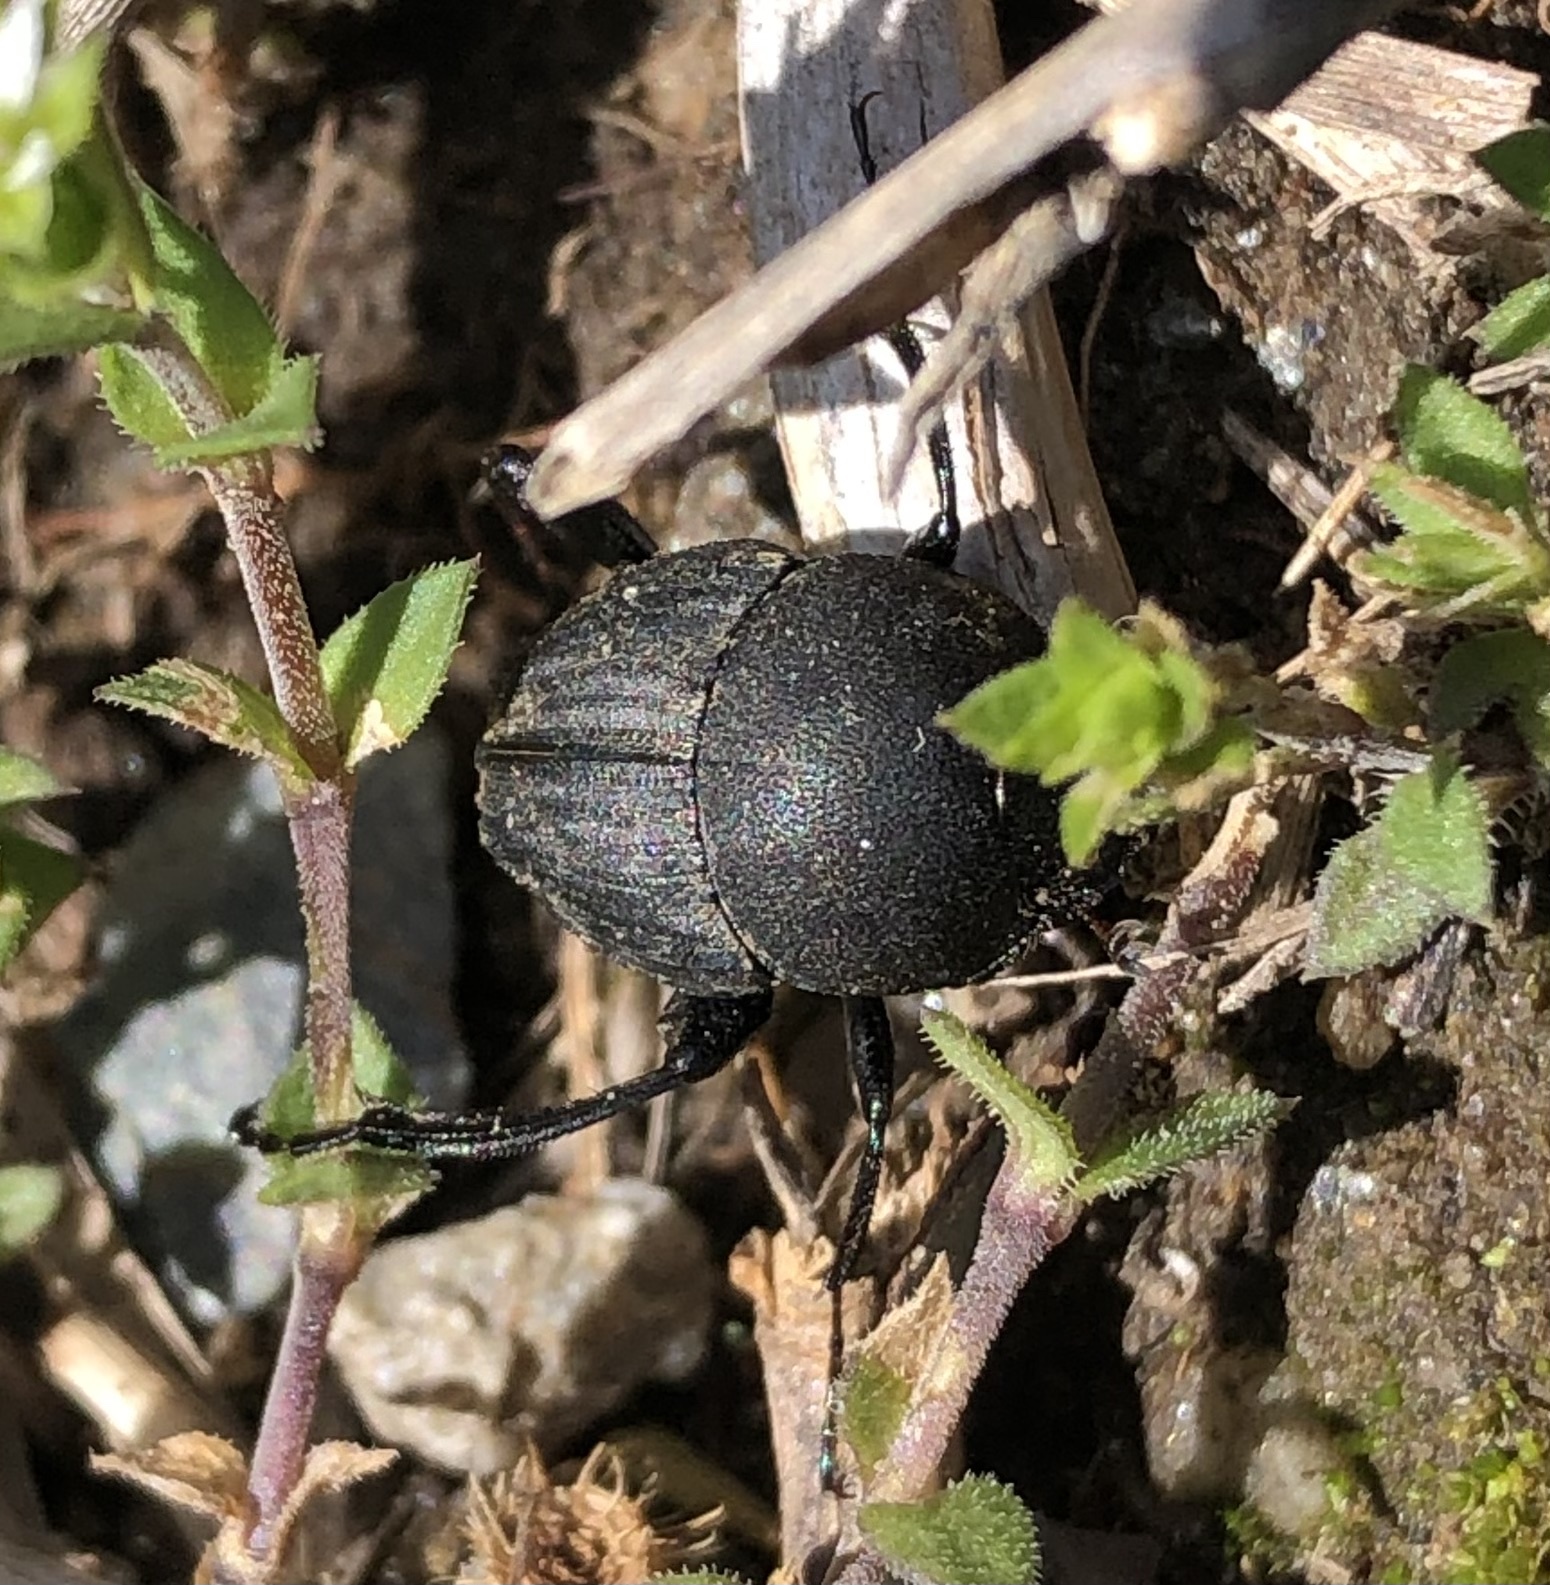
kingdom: Animalia
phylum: Arthropoda
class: Insecta
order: Coleoptera
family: Scarabaeidae
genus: Sisyphus
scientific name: Sisyphus schaefferi
